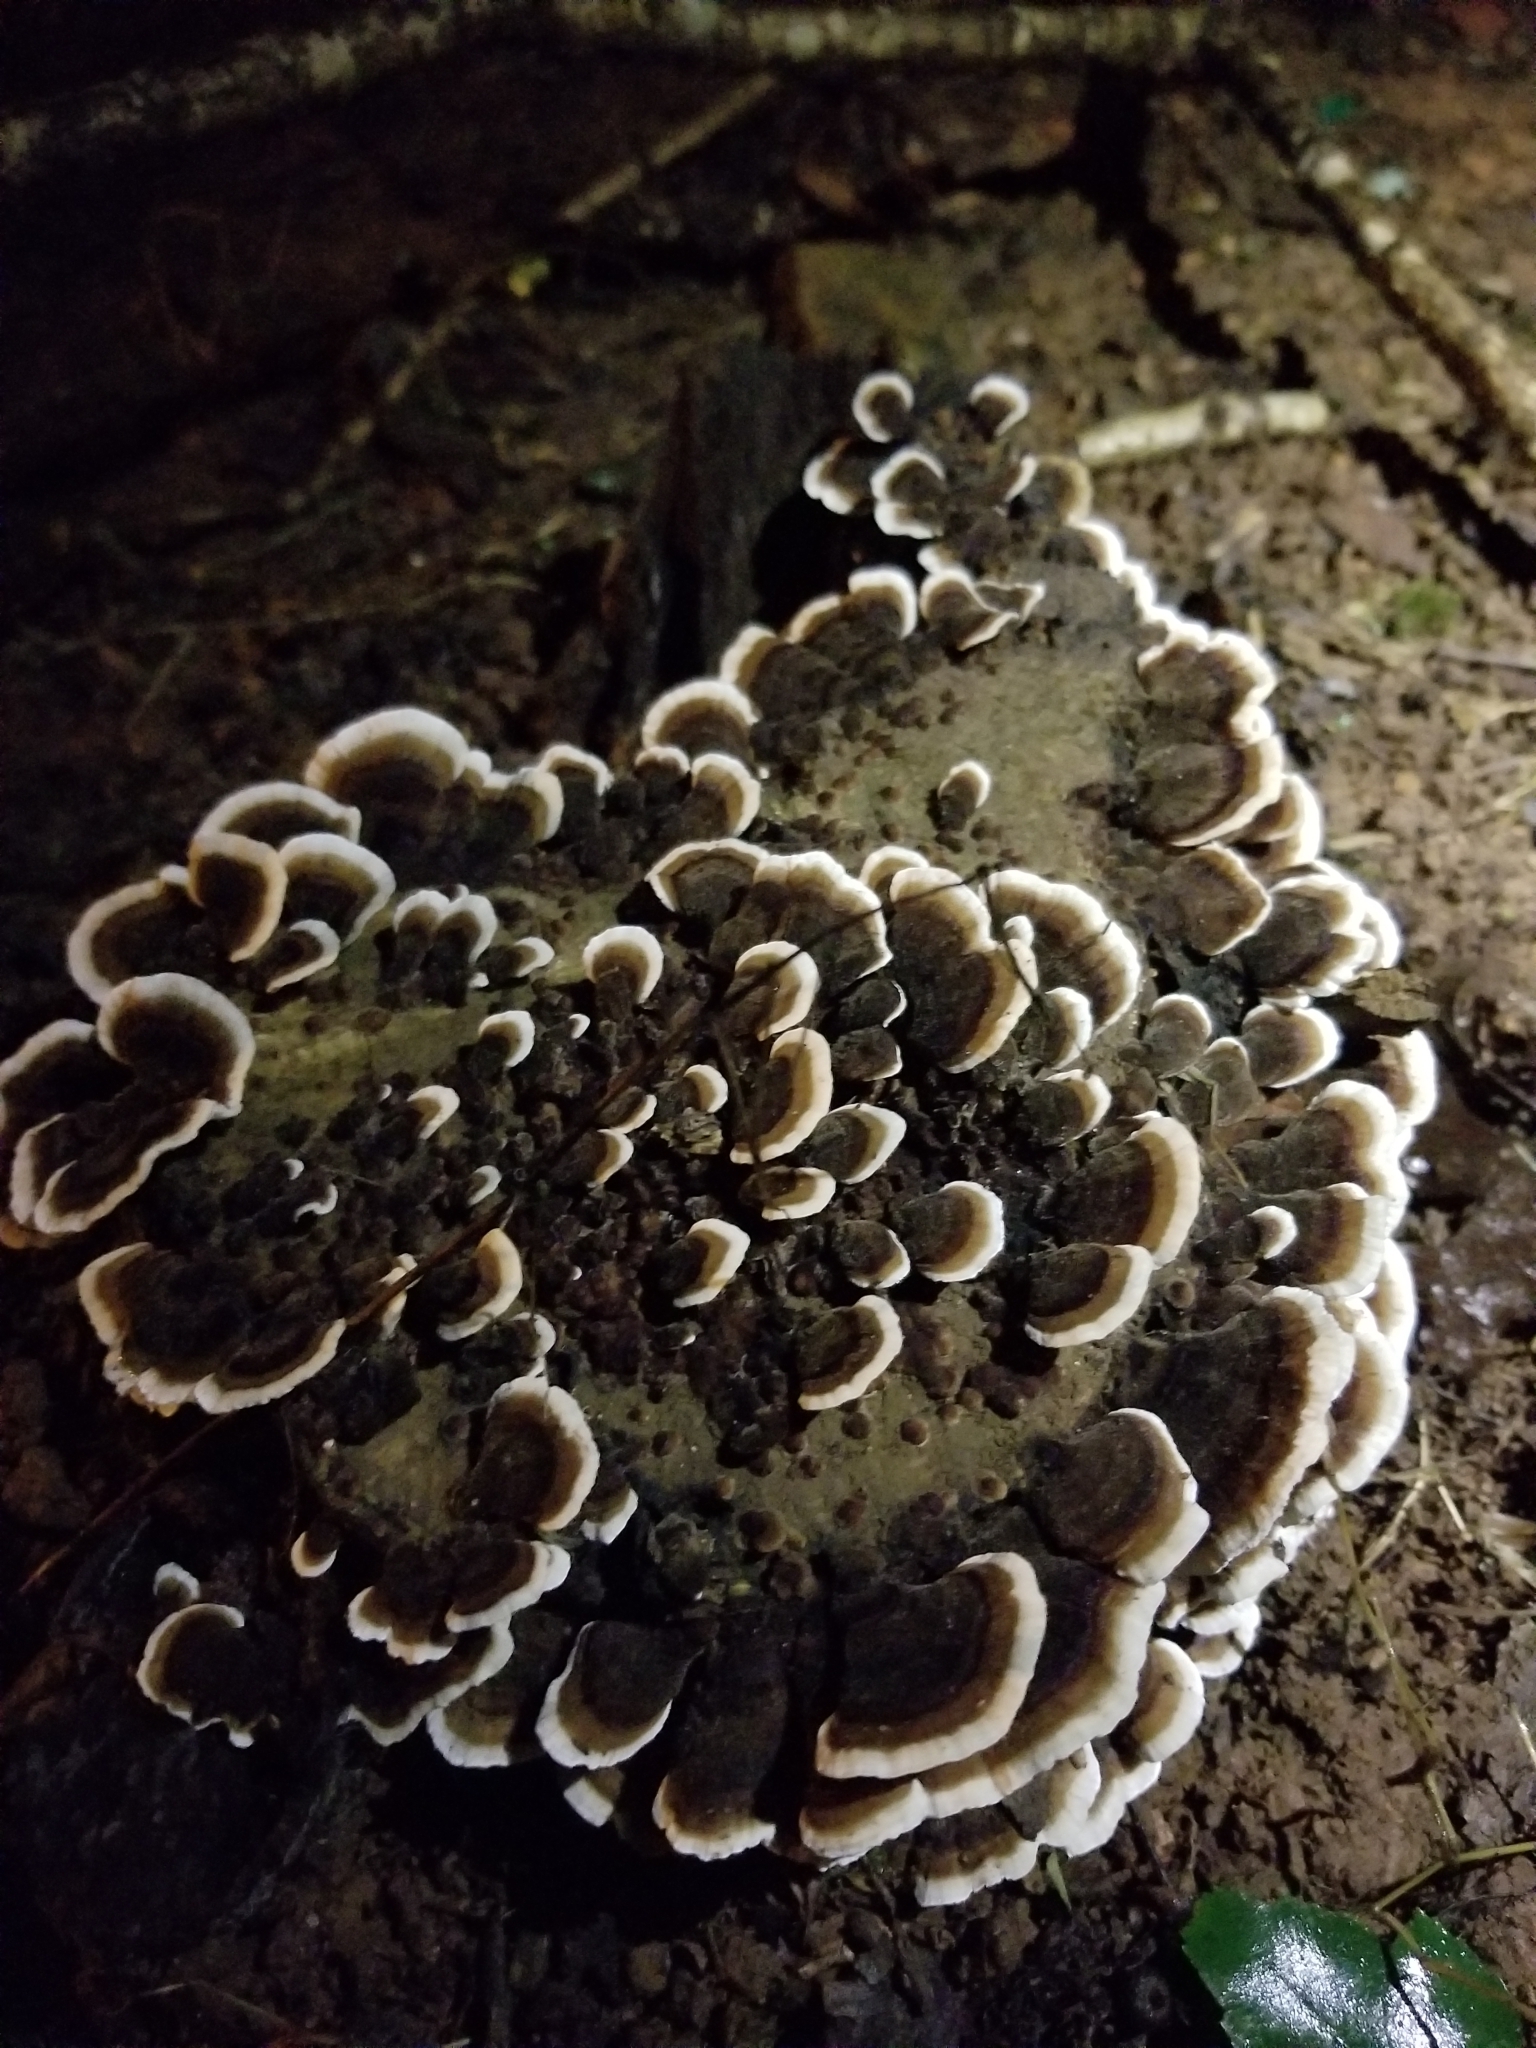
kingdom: Fungi
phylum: Basidiomycota
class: Agaricomycetes
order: Polyporales
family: Polyporaceae
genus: Trametes
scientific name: Trametes versicolor
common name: Turkeytail
